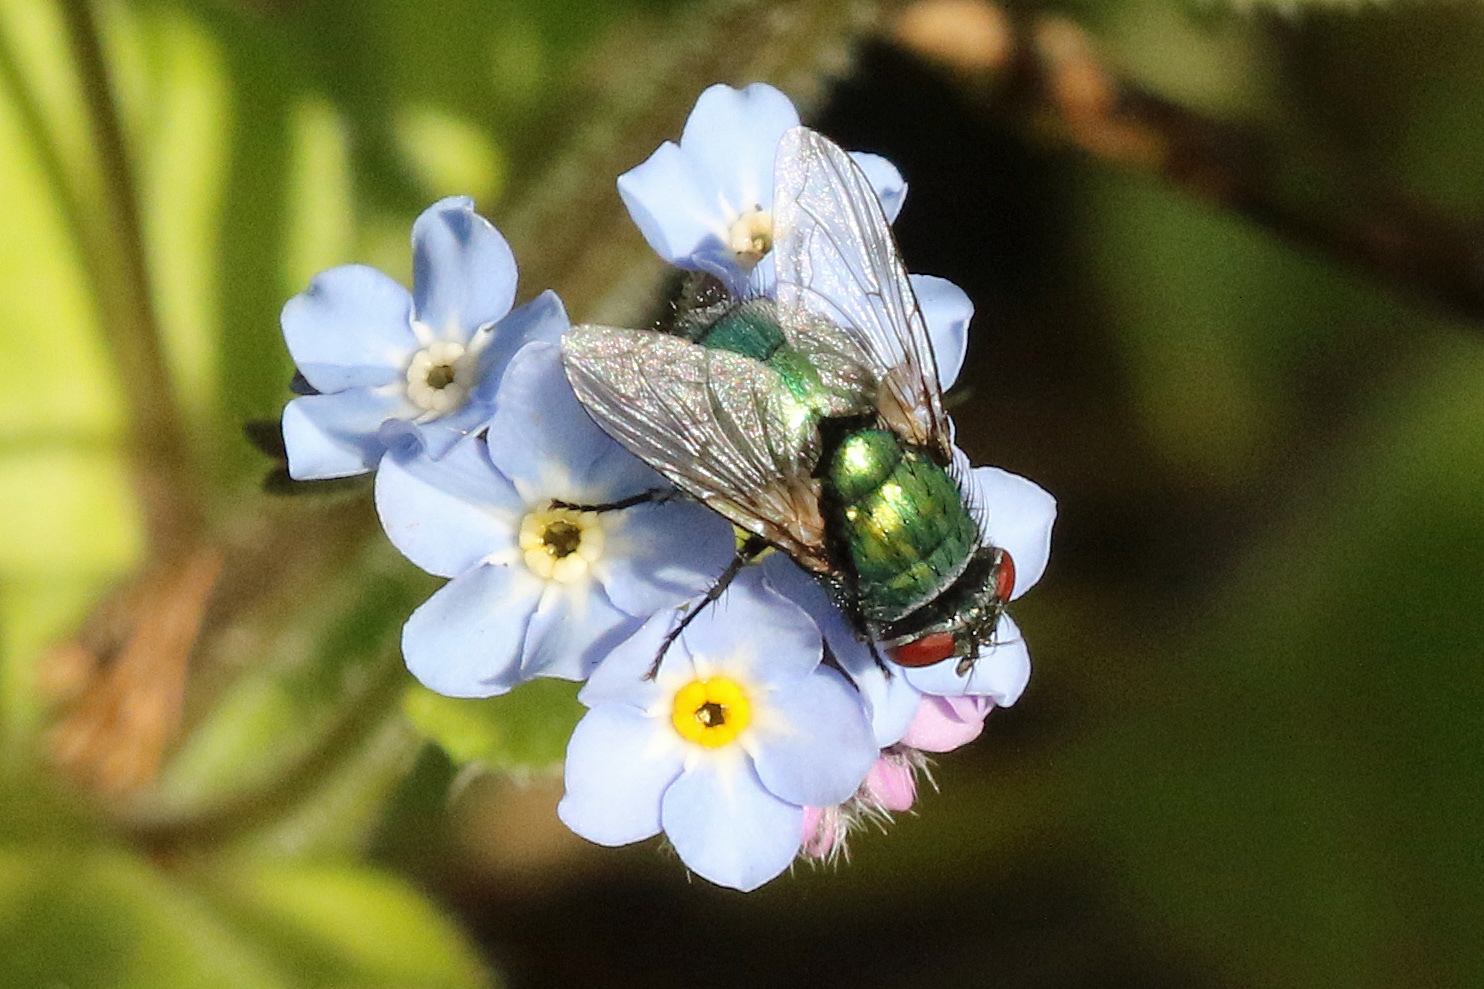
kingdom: Animalia
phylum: Arthropoda
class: Insecta
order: Diptera
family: Calliphoridae
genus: Lucilia
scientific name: Lucilia
